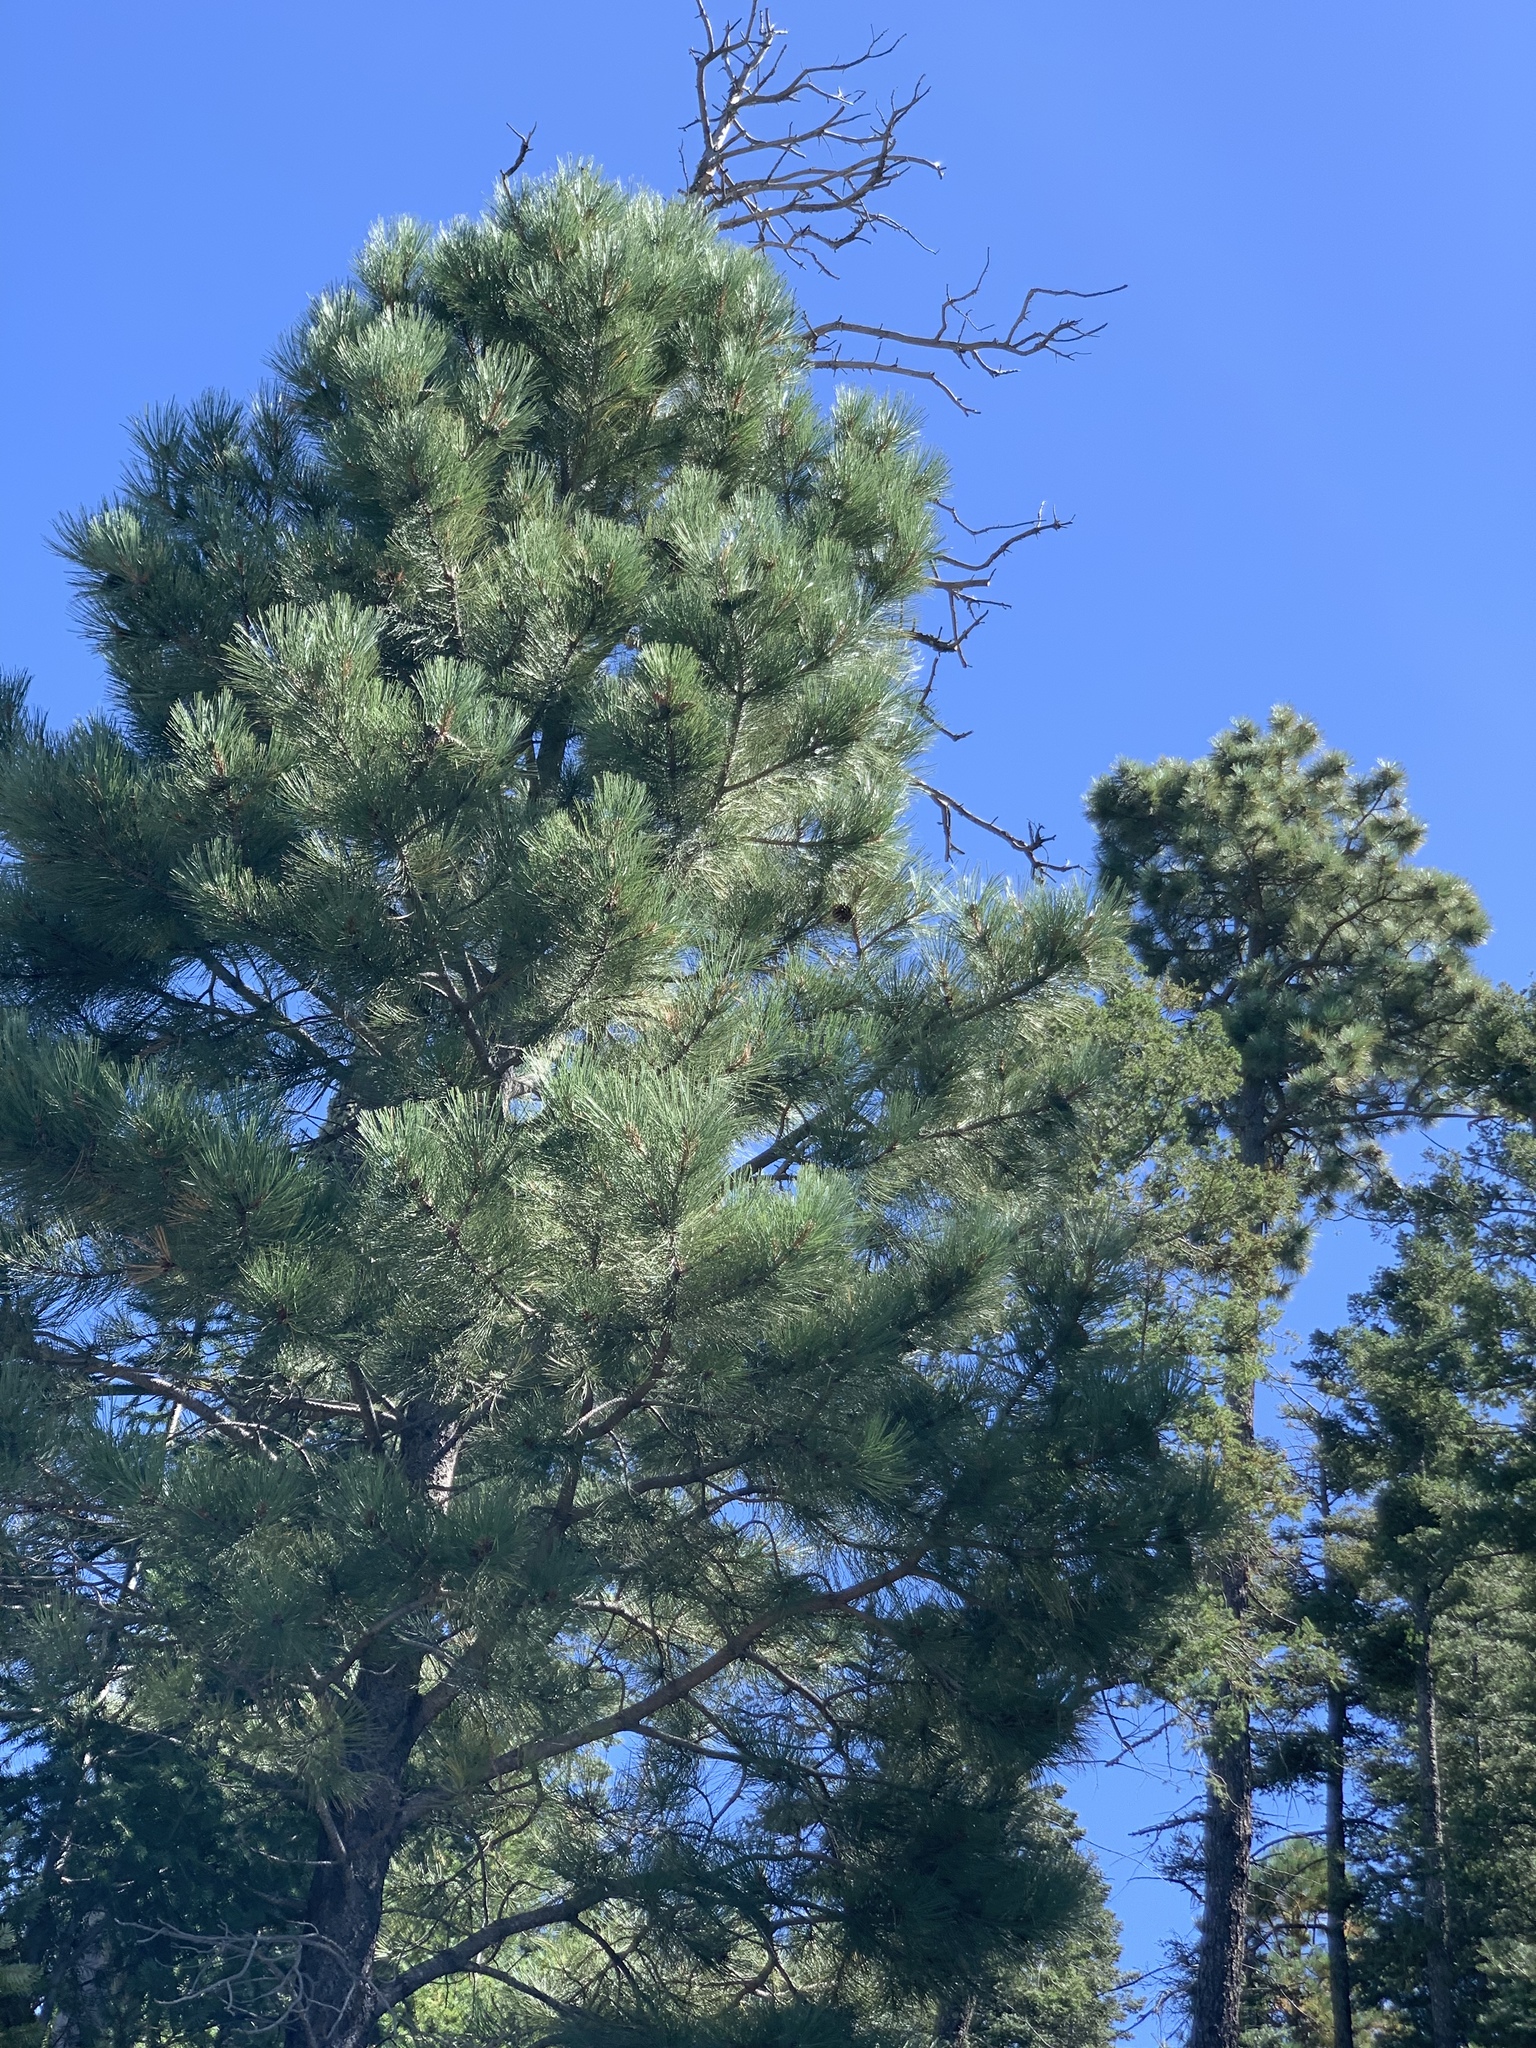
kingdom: Plantae
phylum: Tracheophyta
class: Pinopsida
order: Pinales
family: Pinaceae
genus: Pinus
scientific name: Pinus ponderosa
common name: Western yellow-pine
